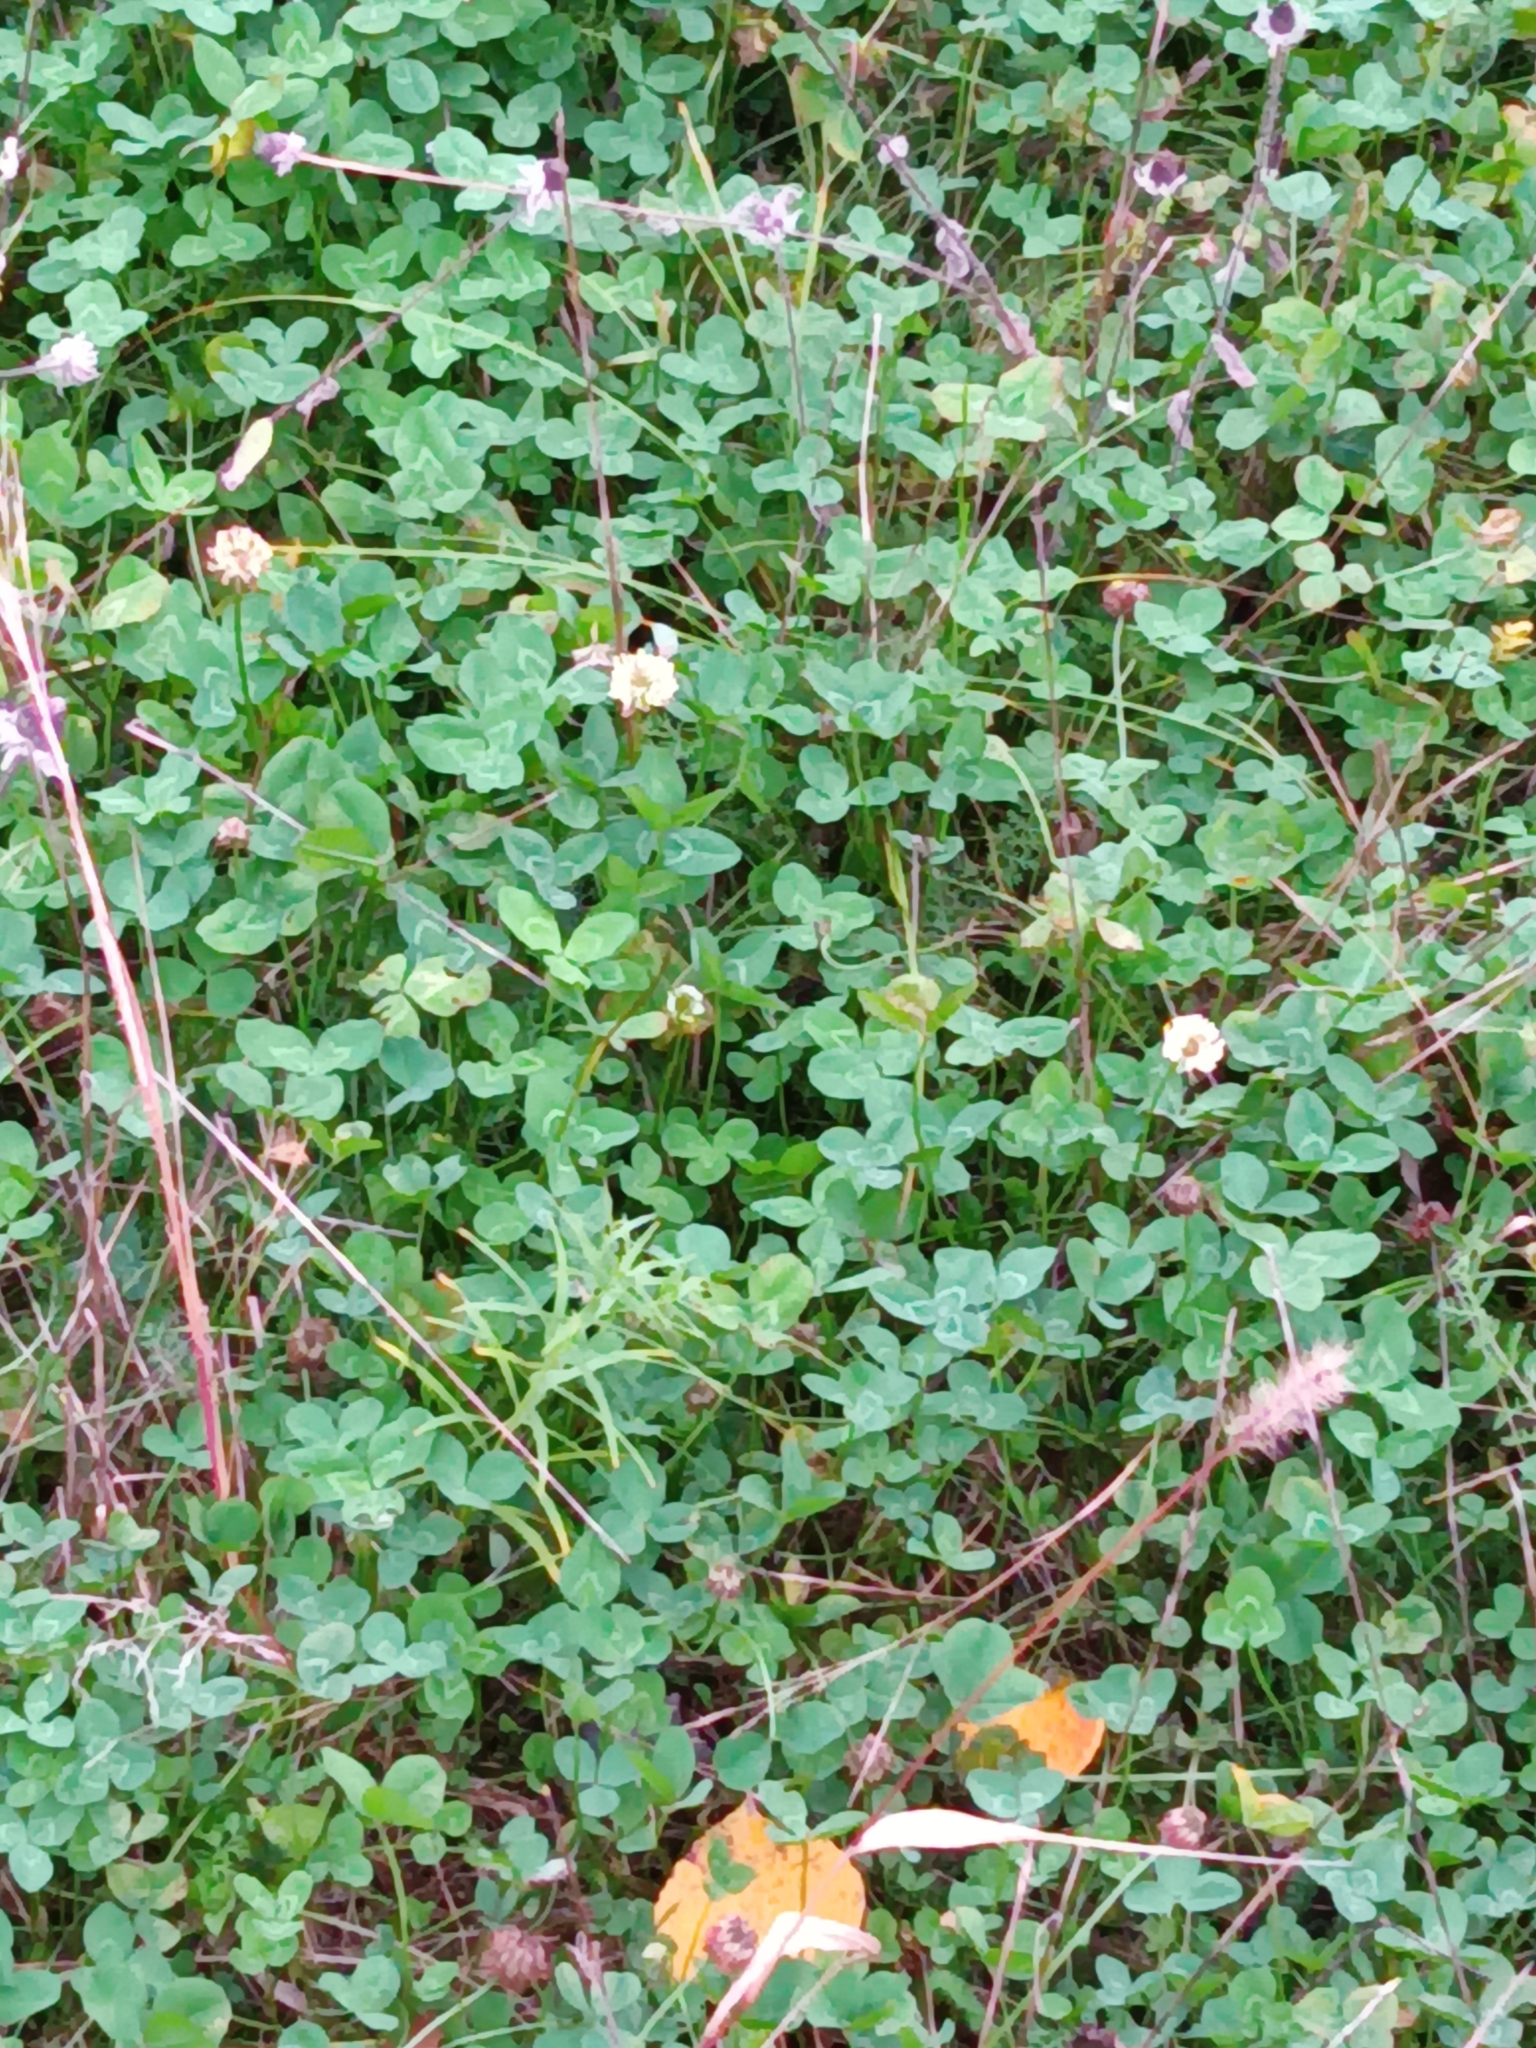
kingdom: Plantae
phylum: Tracheophyta
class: Magnoliopsida
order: Fabales
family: Fabaceae
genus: Trifolium
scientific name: Trifolium repens
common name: White clover
